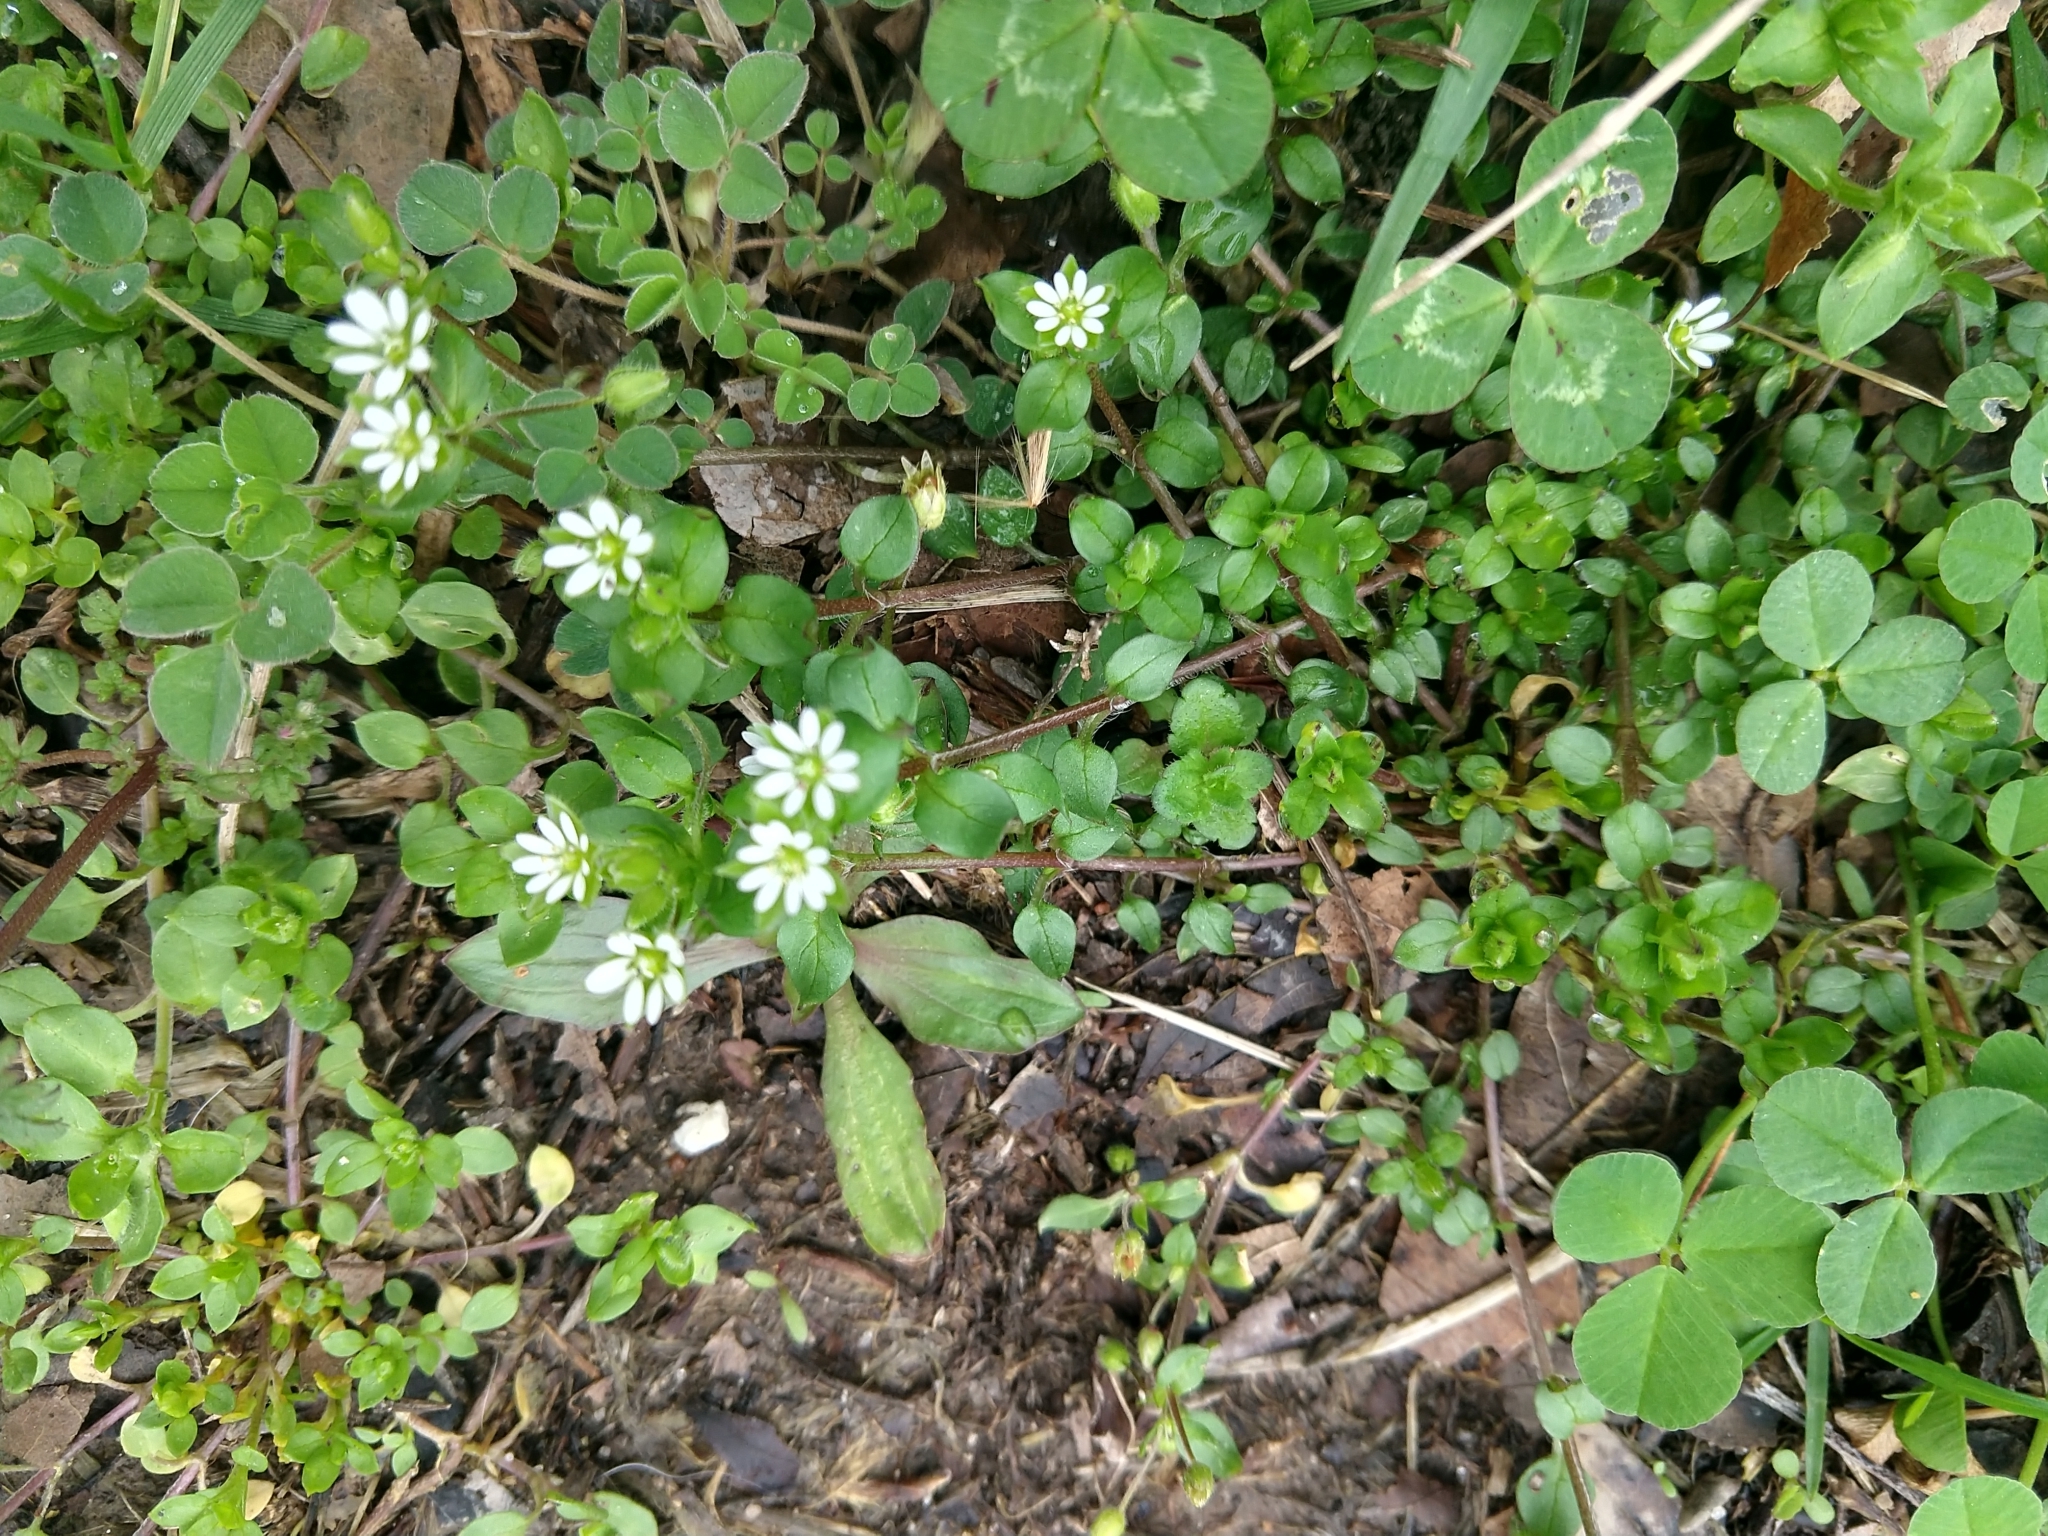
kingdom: Plantae
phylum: Tracheophyta
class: Magnoliopsida
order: Caryophyllales
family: Caryophyllaceae
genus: Stellaria
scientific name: Stellaria media
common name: Common chickweed
